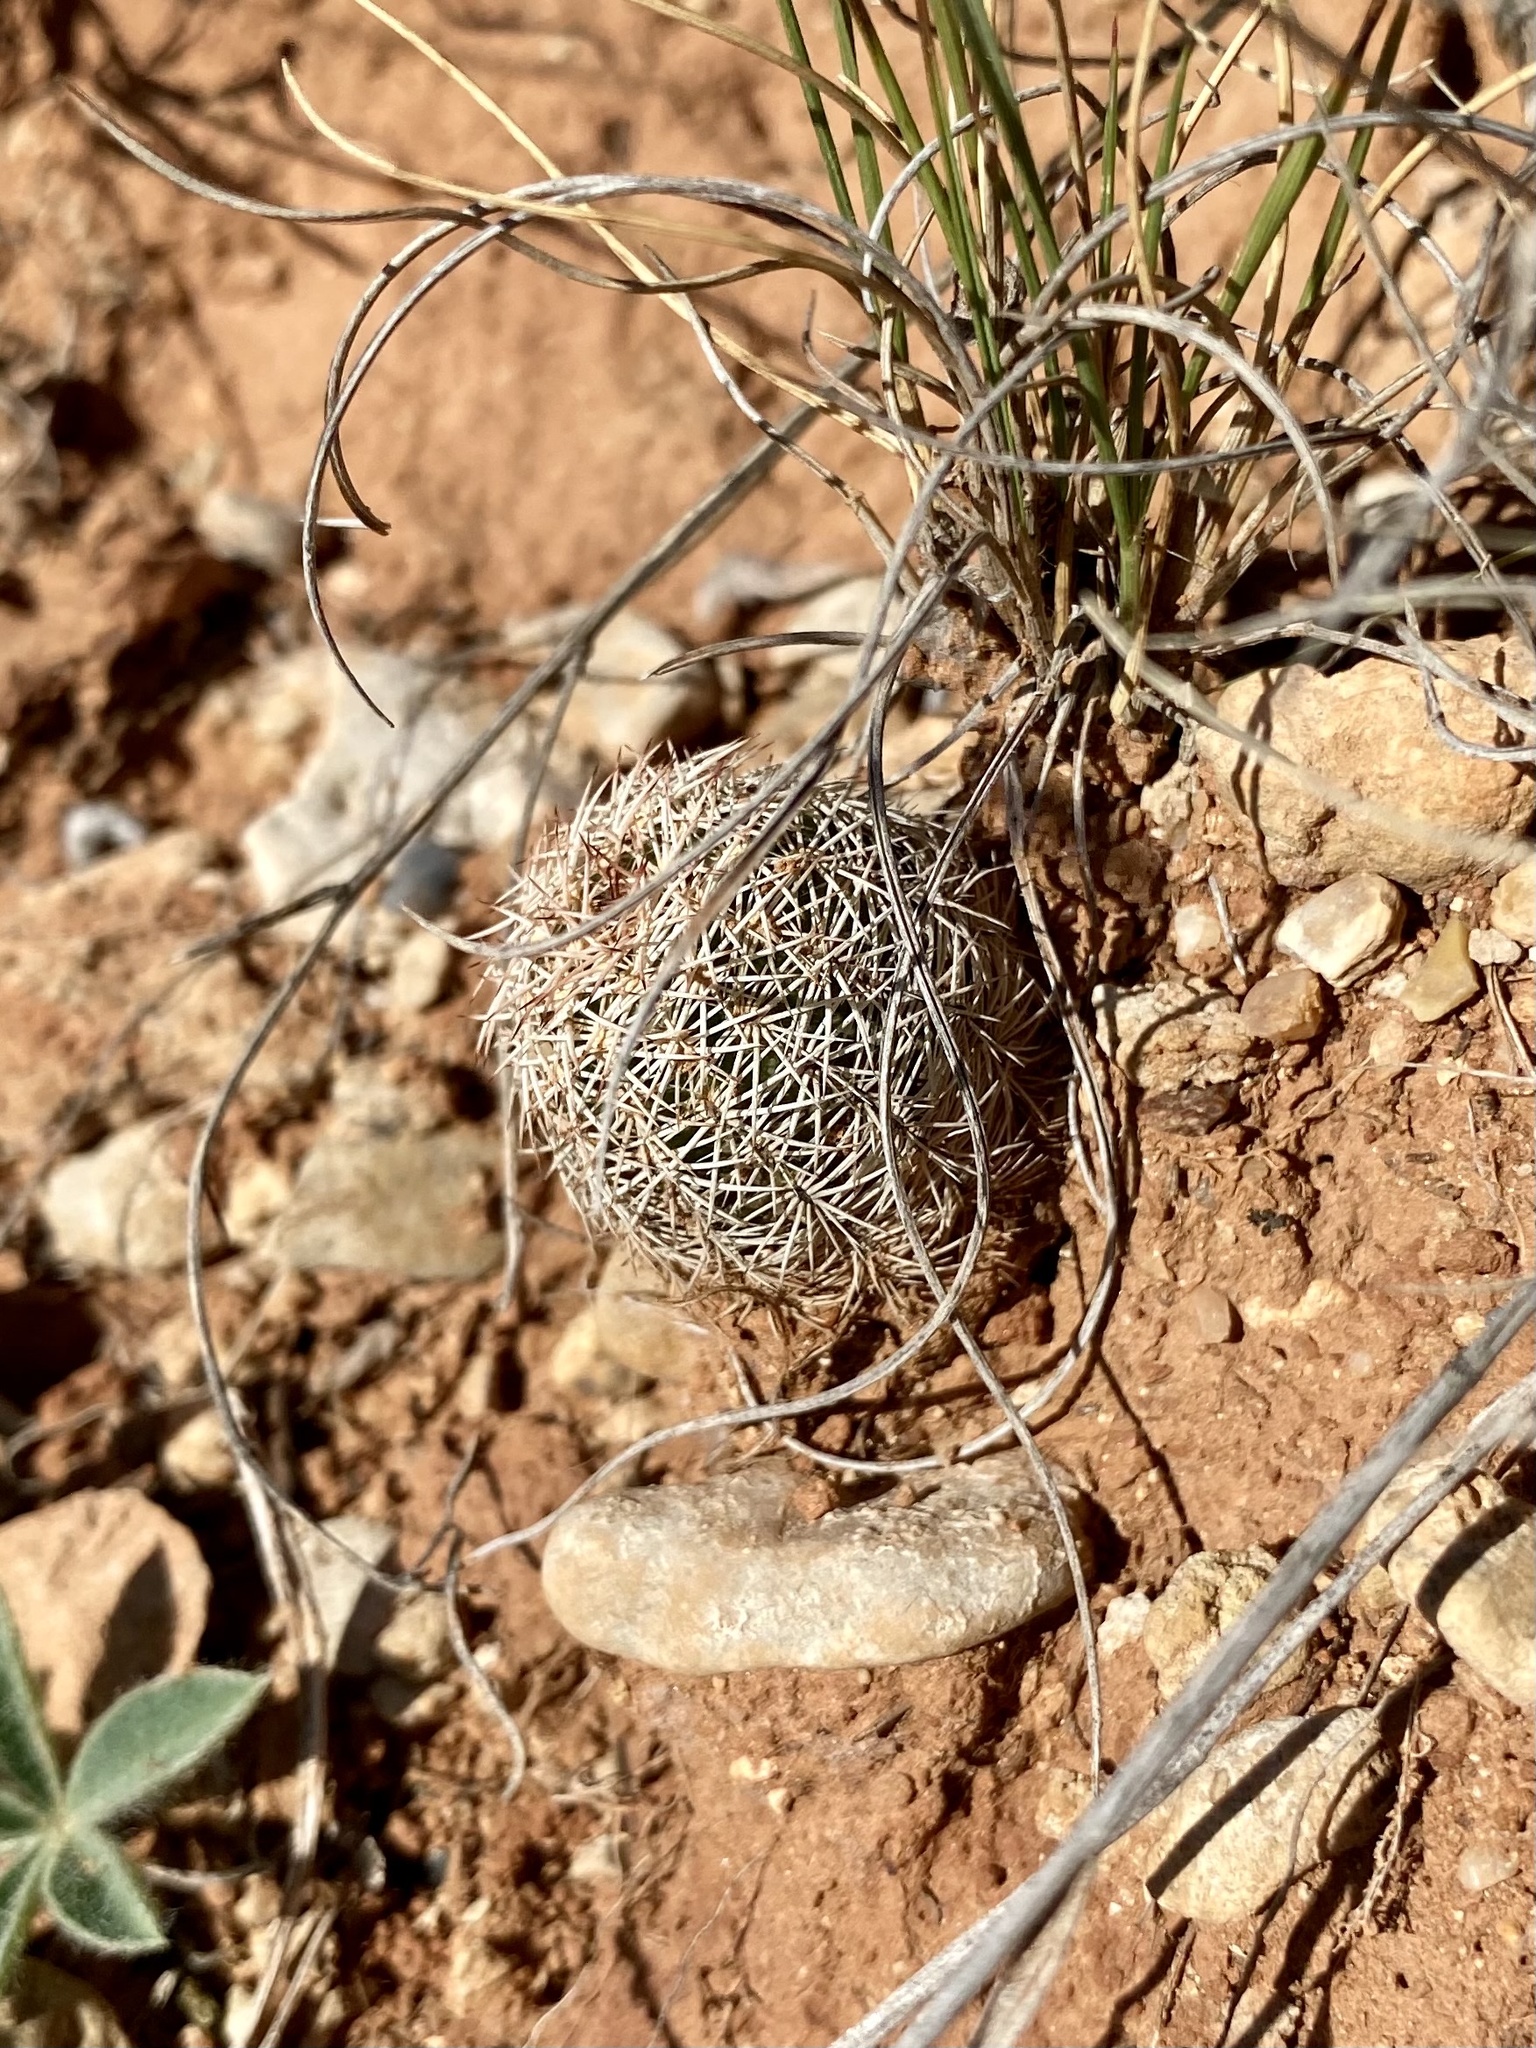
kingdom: Plantae
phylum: Tracheophyta
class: Magnoliopsida
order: Caryophyllales
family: Cactaceae
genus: Echinocereus
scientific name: Echinocereus reichenbachii
